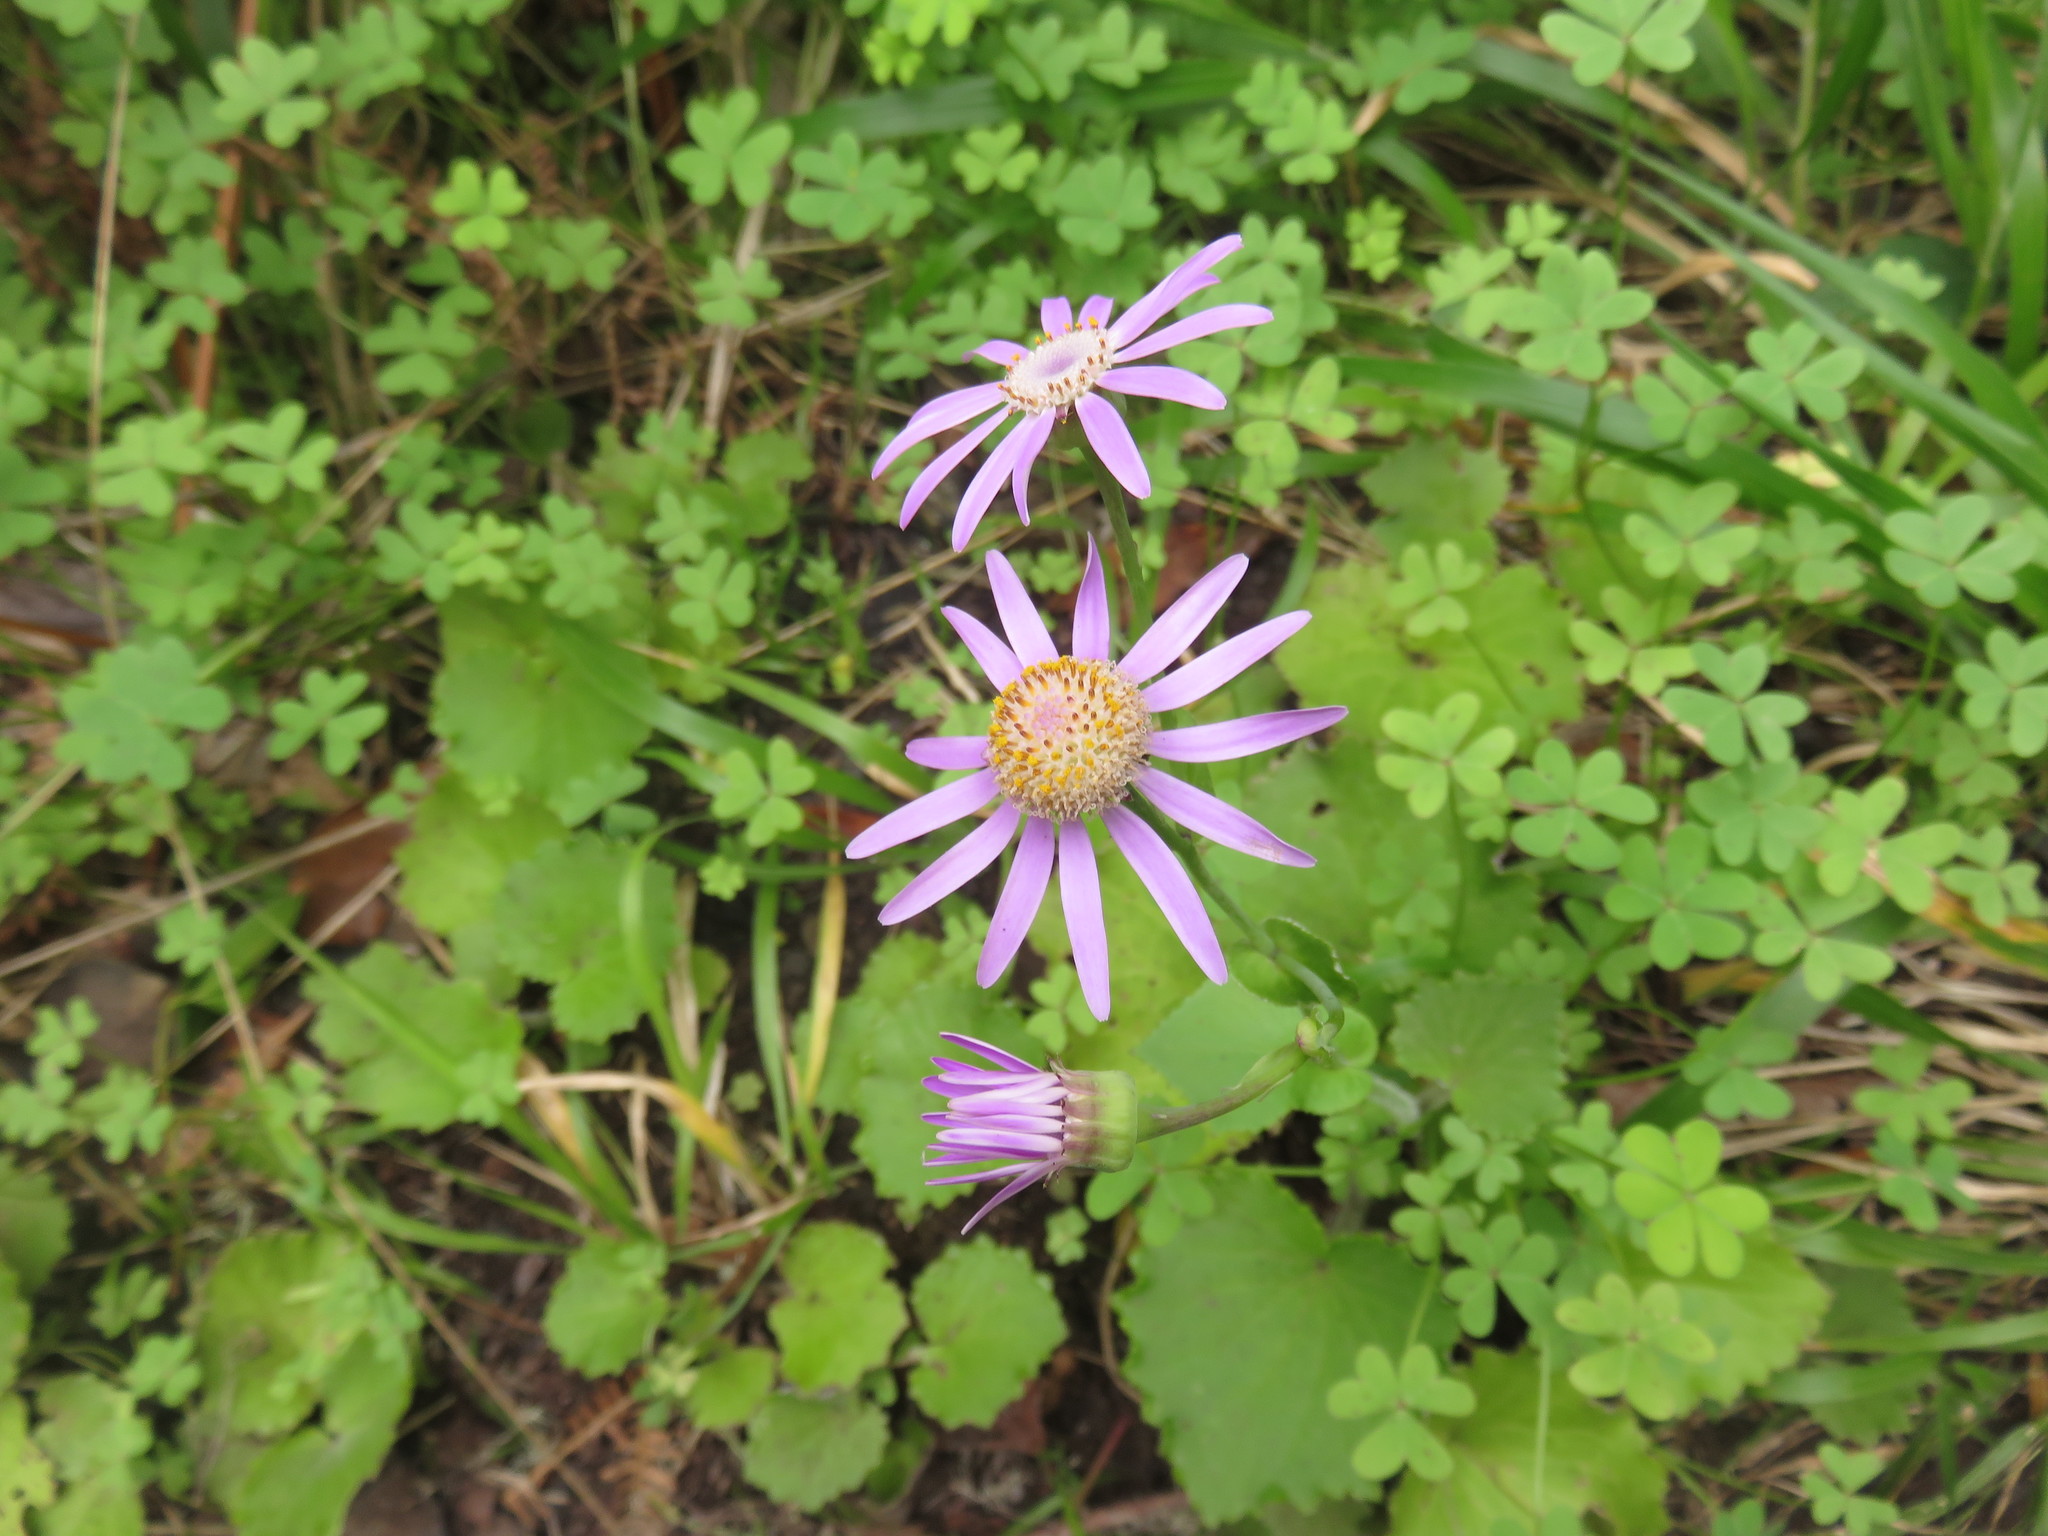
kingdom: Plantae
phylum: Tracheophyta
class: Magnoliopsida
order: Asterales
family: Asteraceae
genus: Pericallis
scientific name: Pericallis tussilaginis
